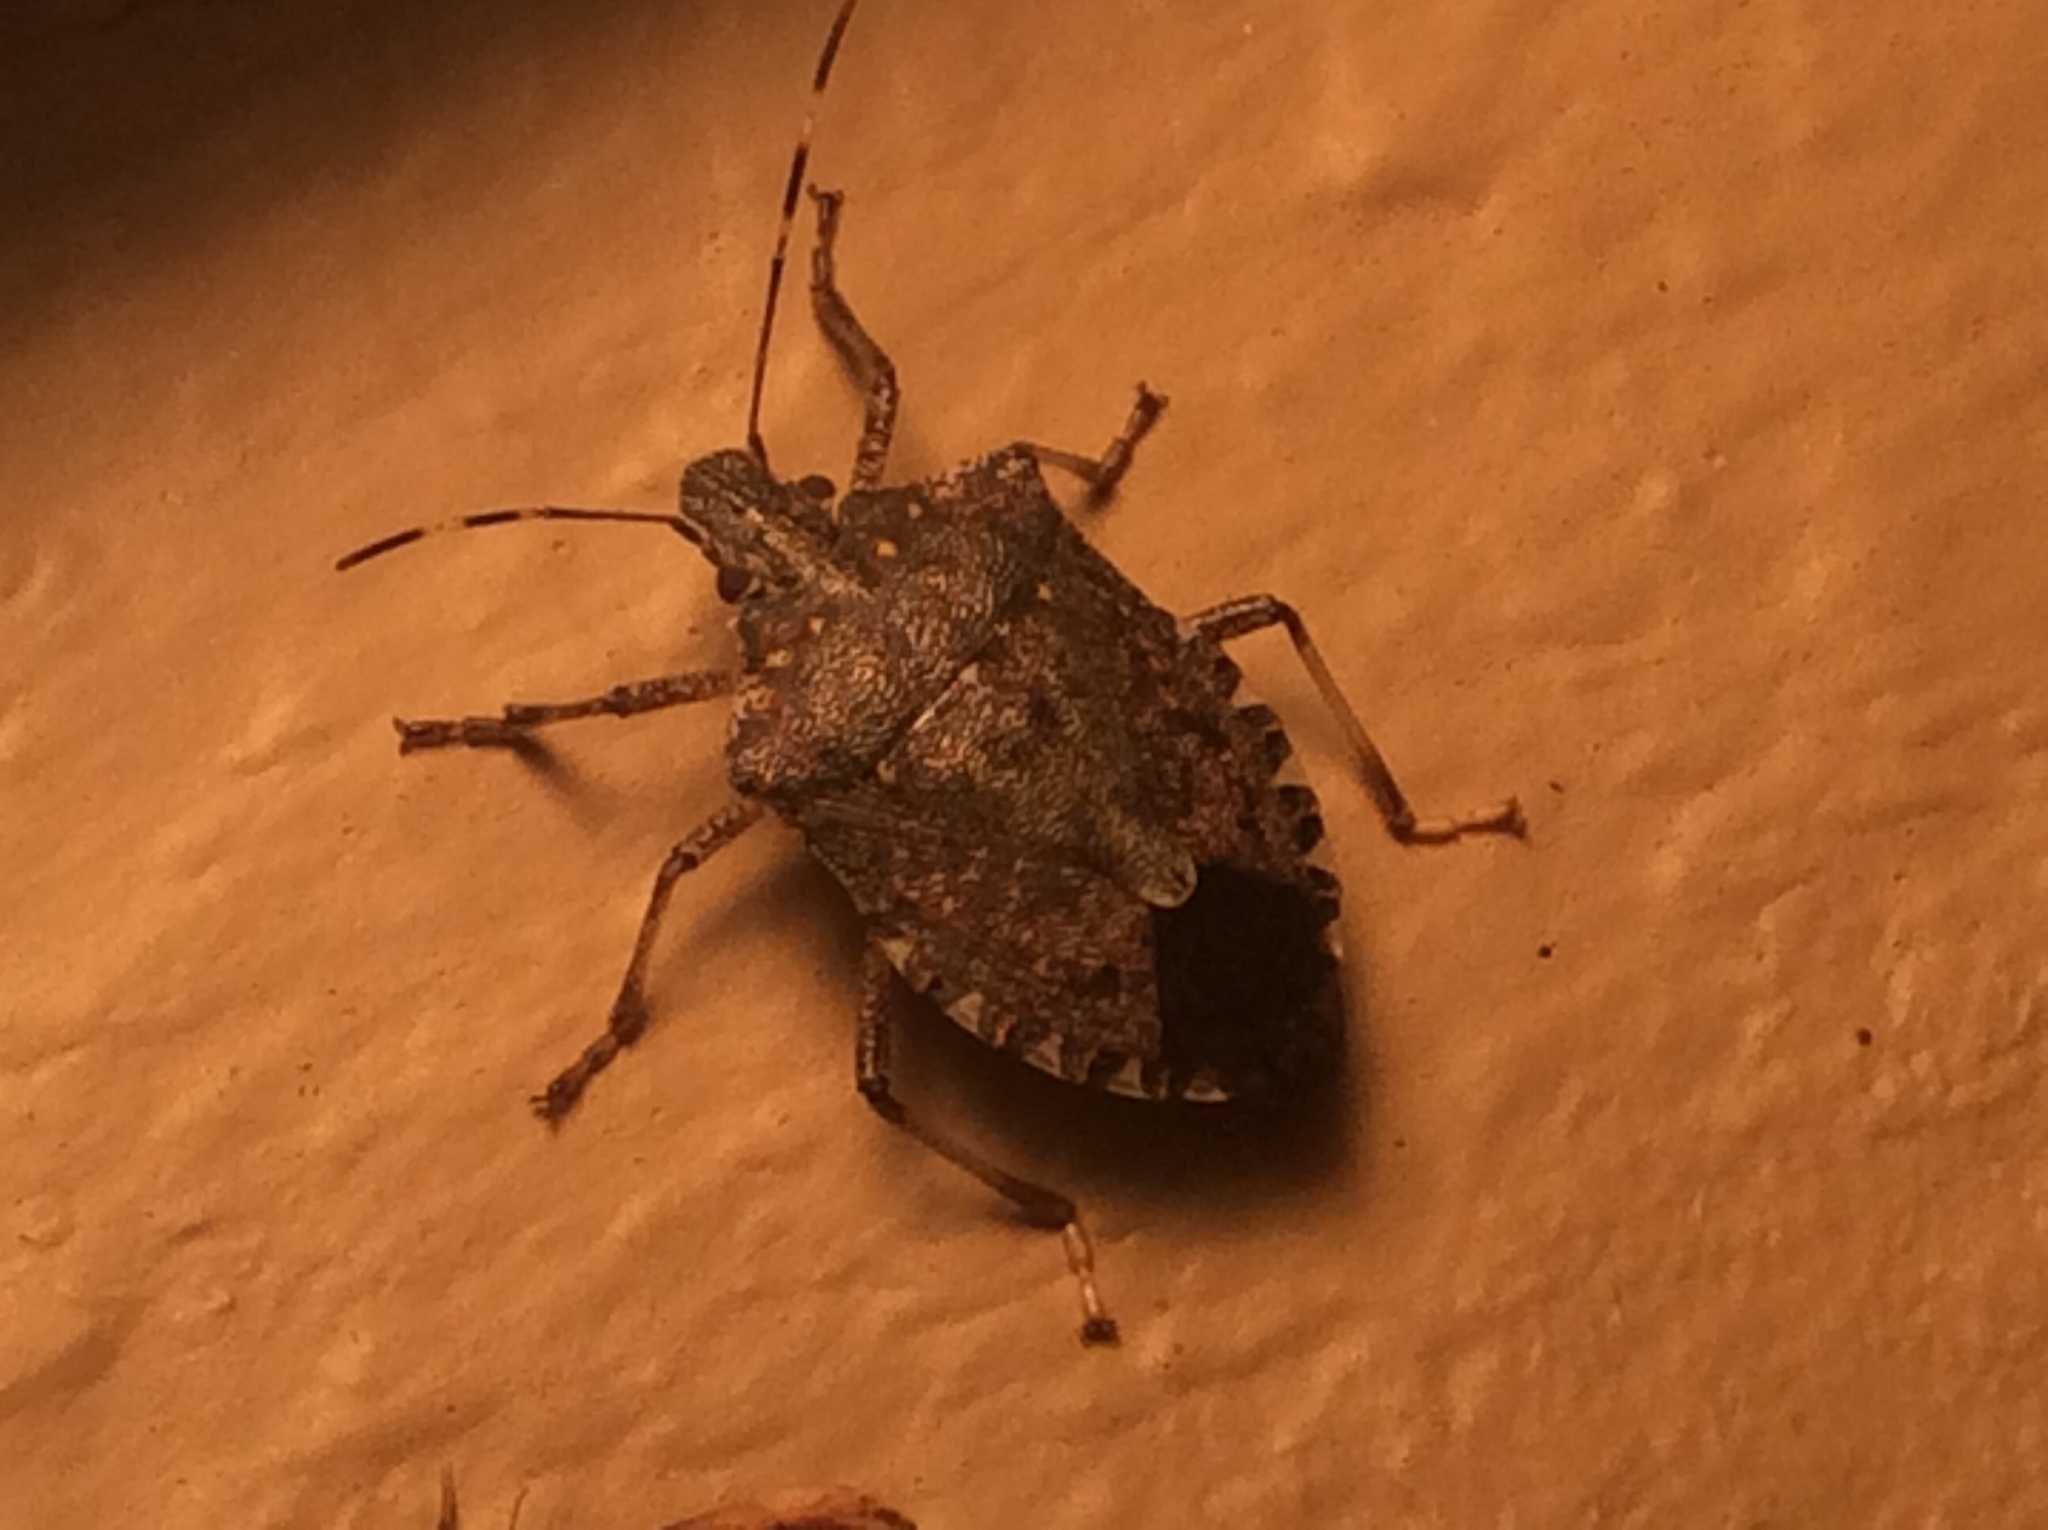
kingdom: Animalia
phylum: Arthropoda
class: Insecta
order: Hemiptera
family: Pentatomidae
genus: Halyomorpha
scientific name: Halyomorpha halys
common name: Brown marmorated stink bug
